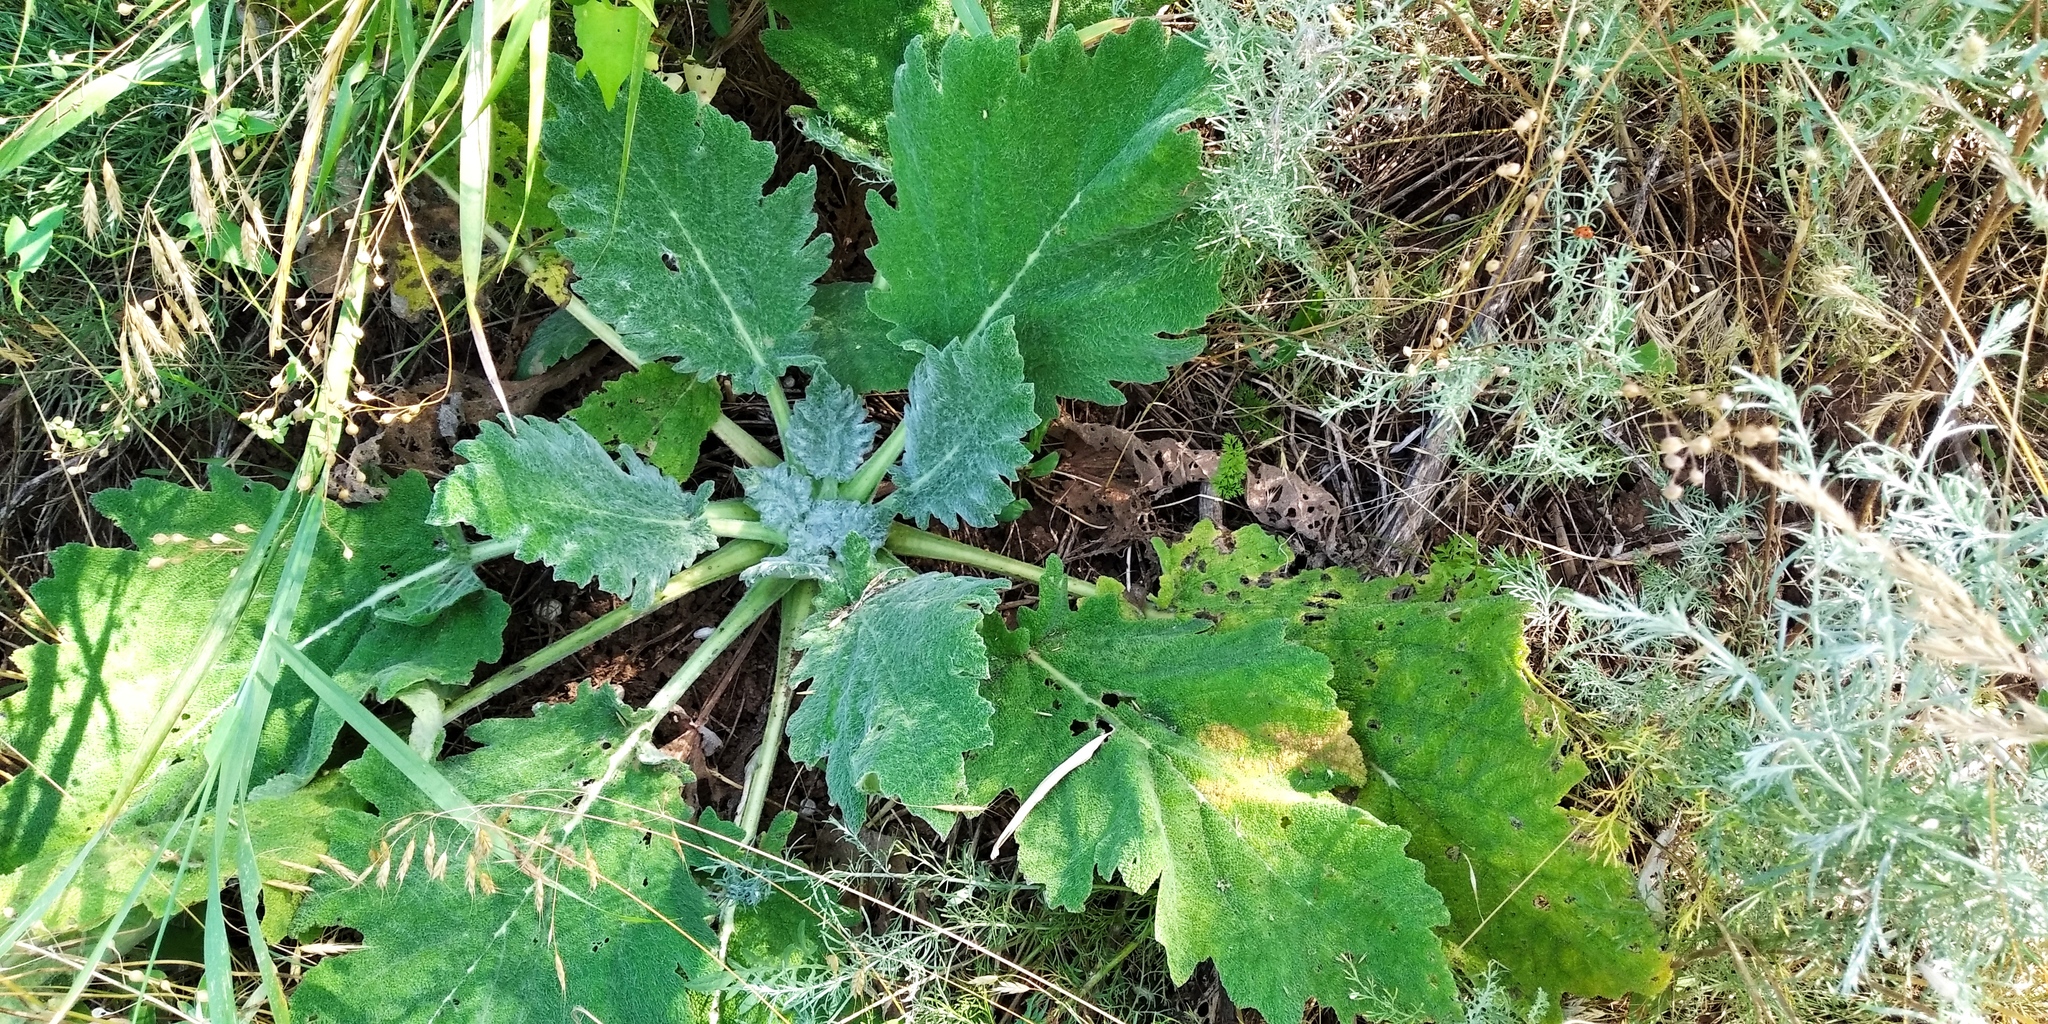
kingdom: Plantae
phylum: Tracheophyta
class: Magnoliopsida
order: Lamiales
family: Lamiaceae
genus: Salvia
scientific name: Salvia aethiopis
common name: Mediterranean sage
